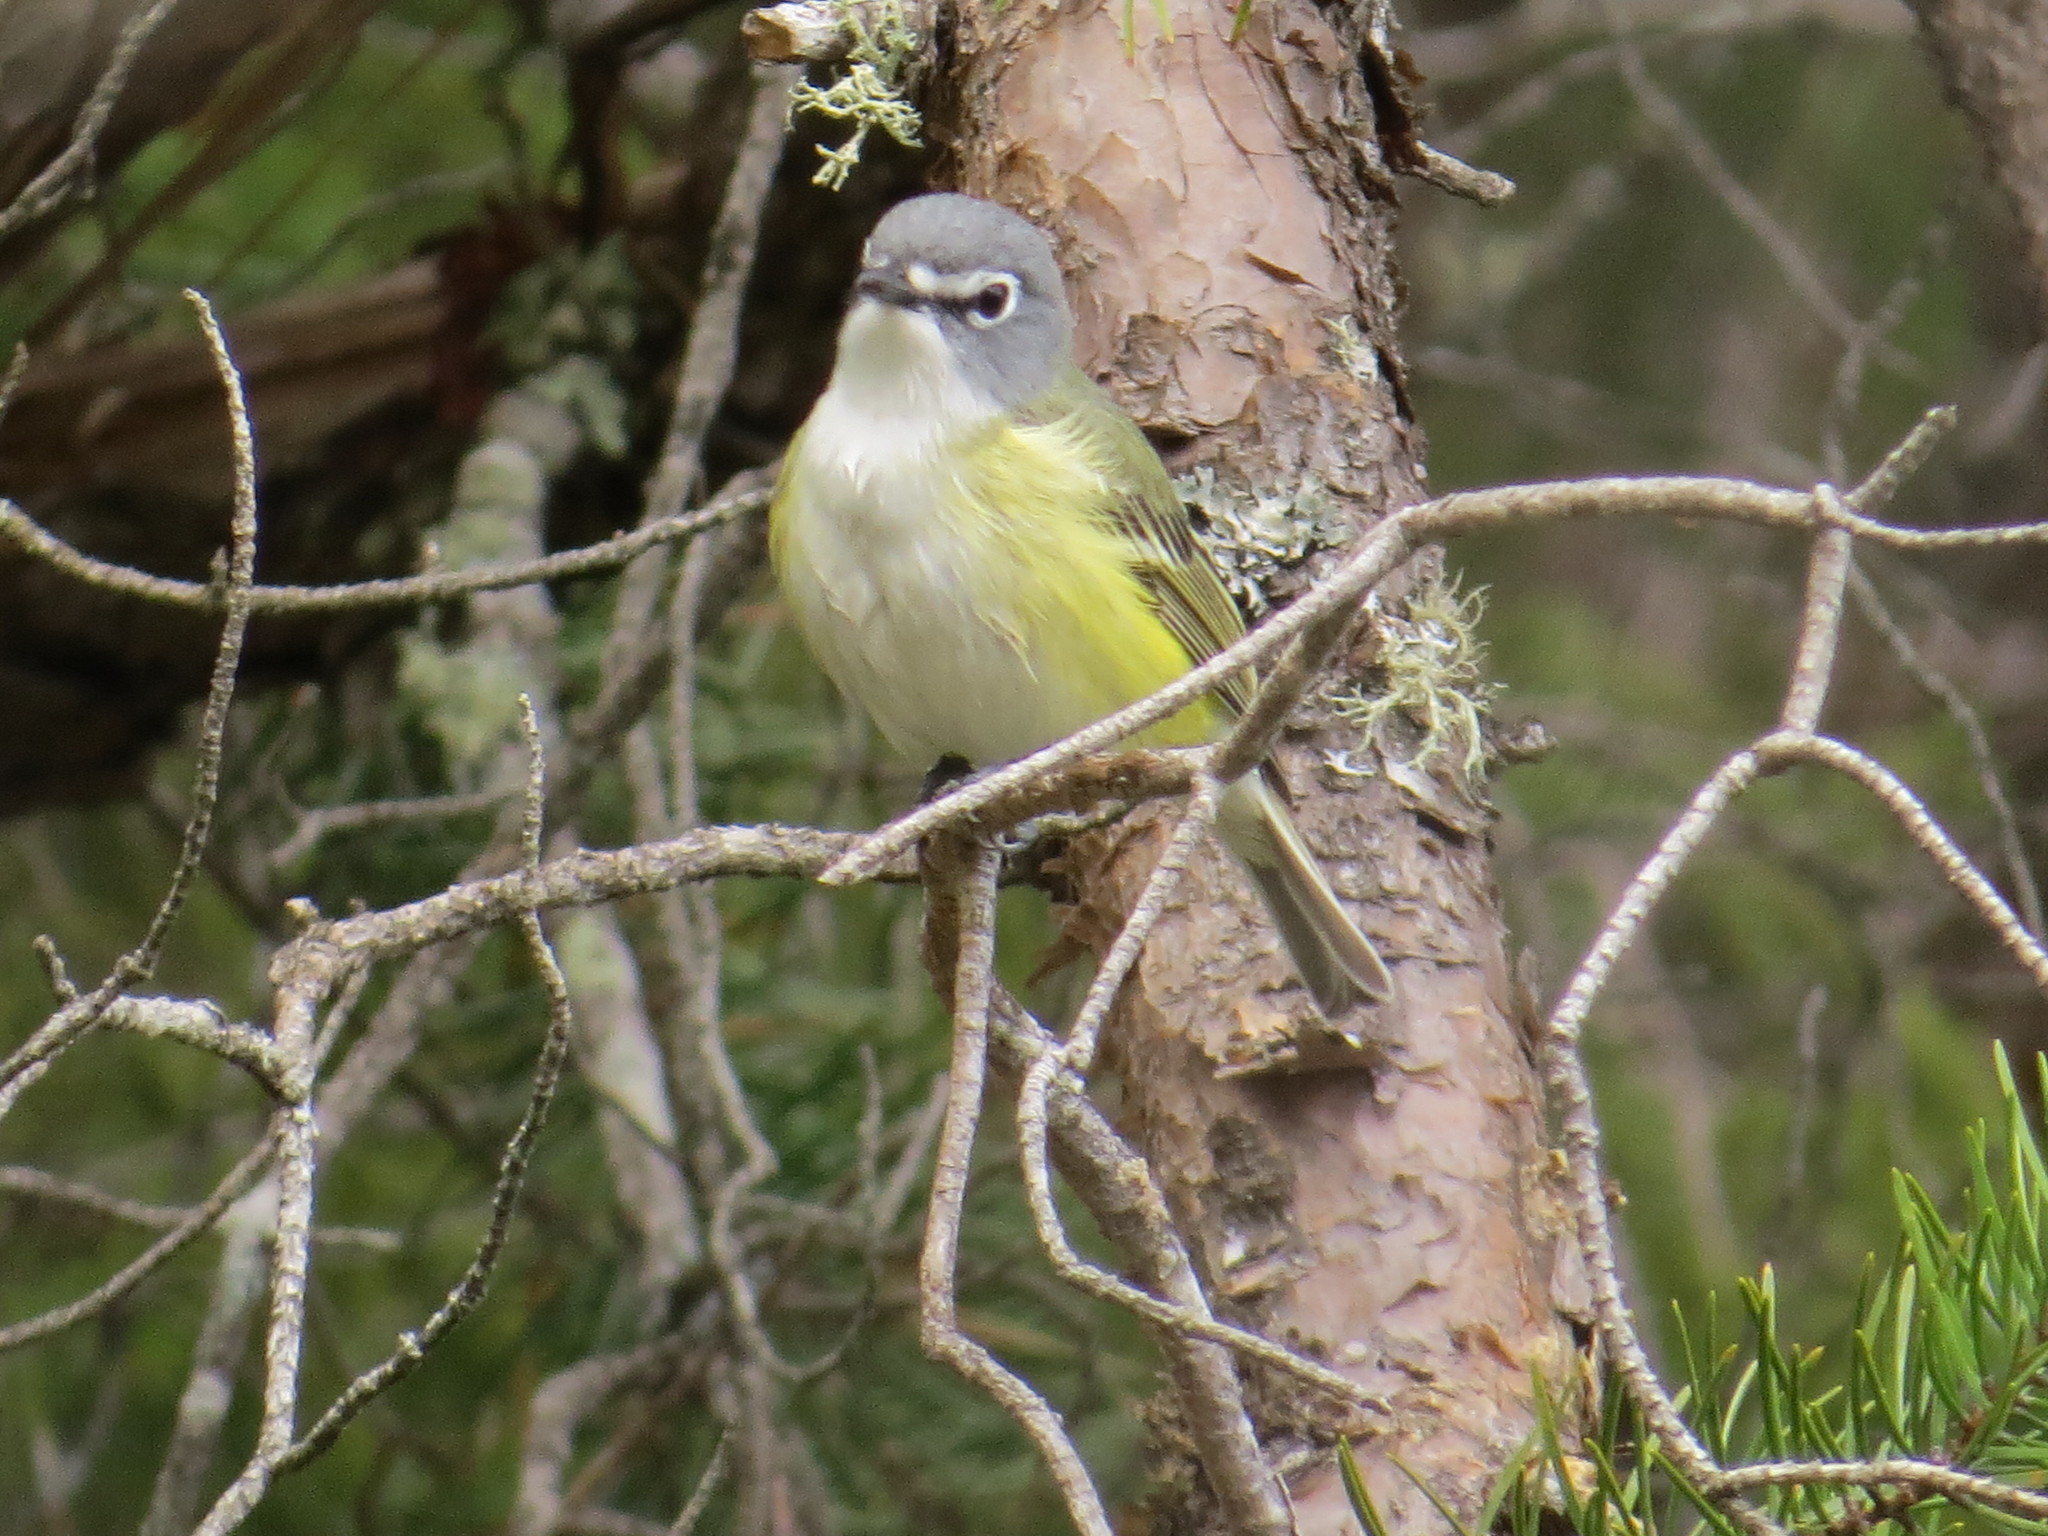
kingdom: Animalia
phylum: Chordata
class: Aves
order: Passeriformes
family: Vireonidae
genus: Vireo
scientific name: Vireo solitarius
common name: Blue-headed vireo
